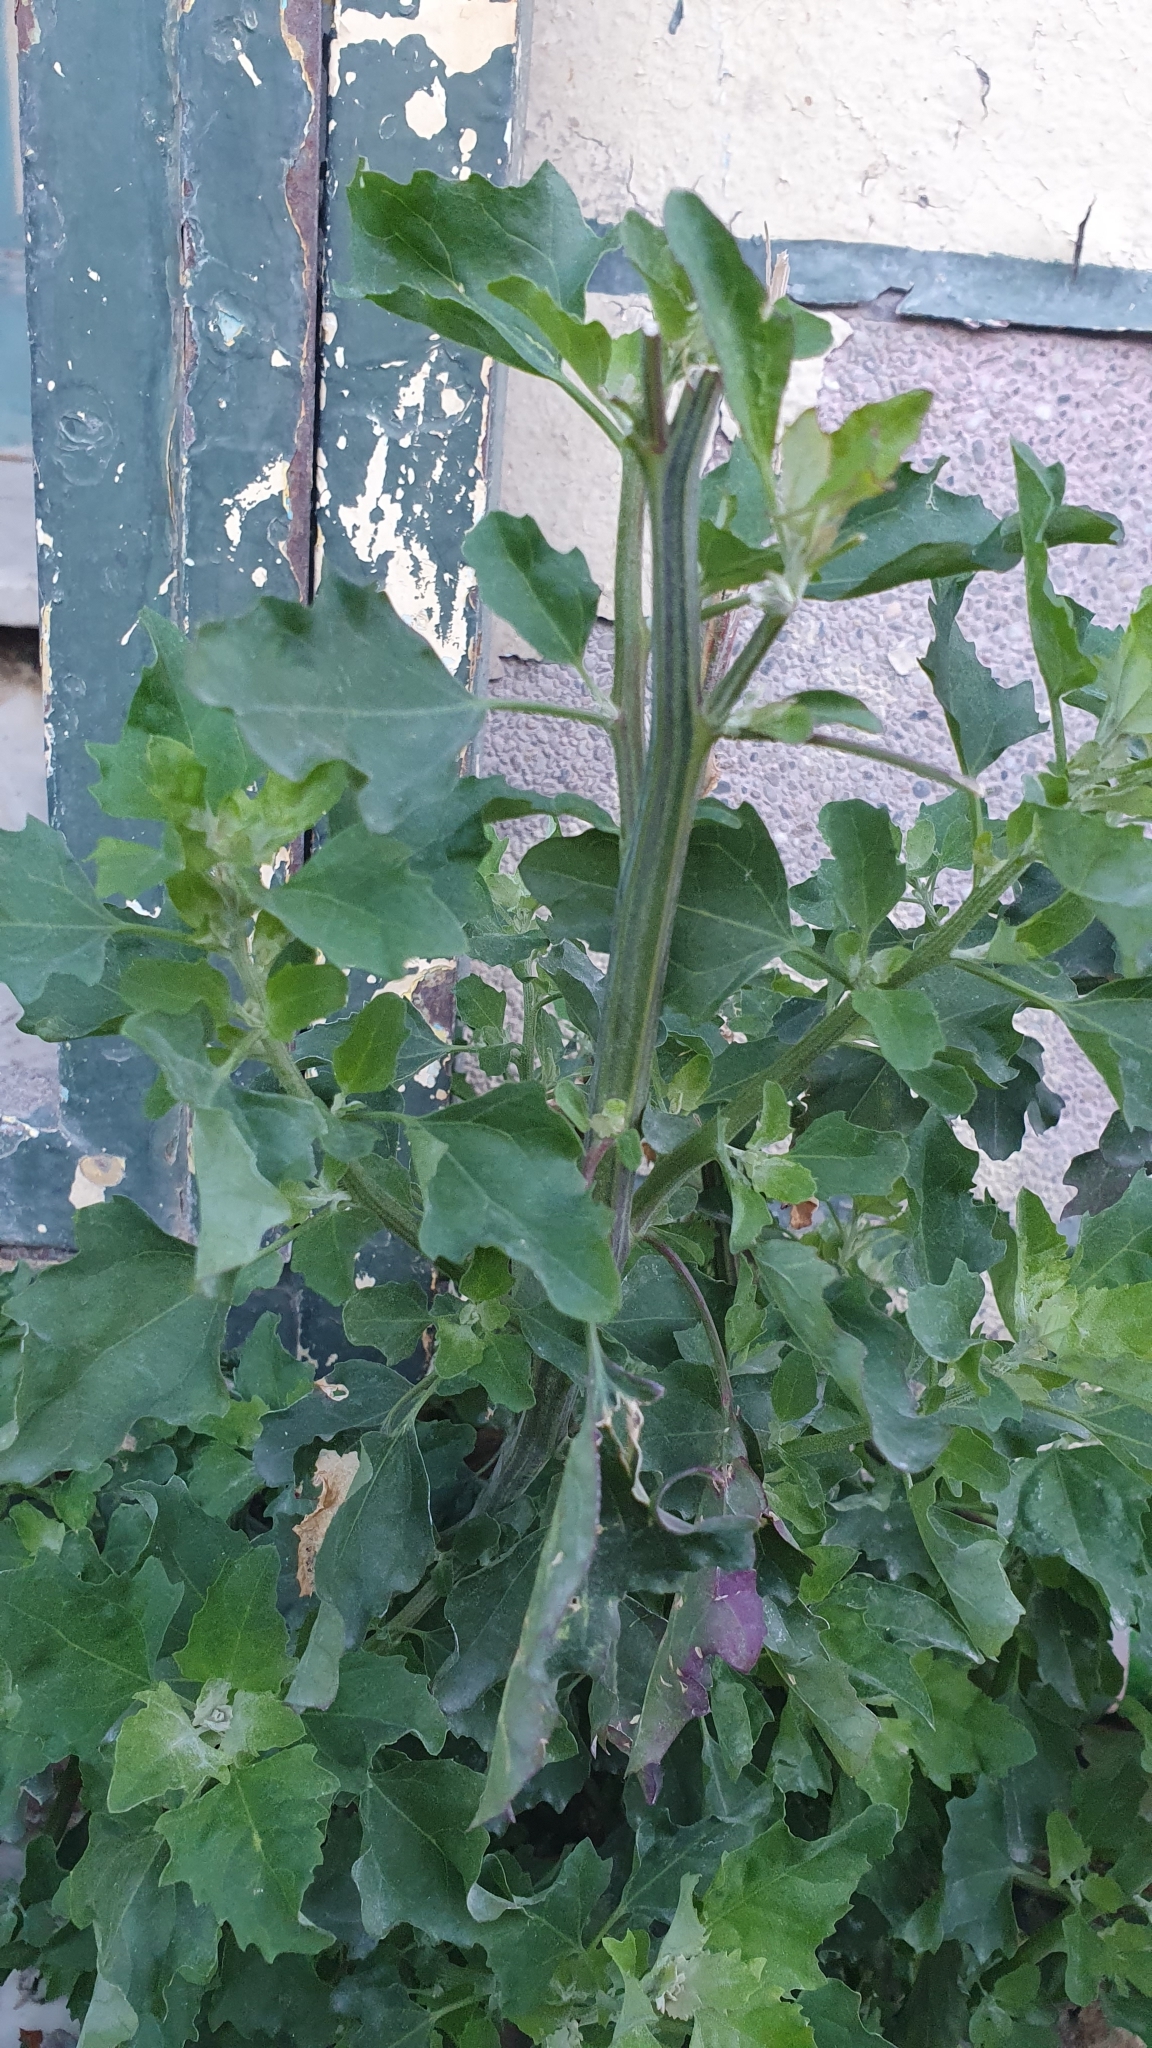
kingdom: Plantae
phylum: Tracheophyta
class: Magnoliopsida
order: Caryophyllales
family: Amaranthaceae
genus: Chenopodium
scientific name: Chenopodium album
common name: Fat-hen
